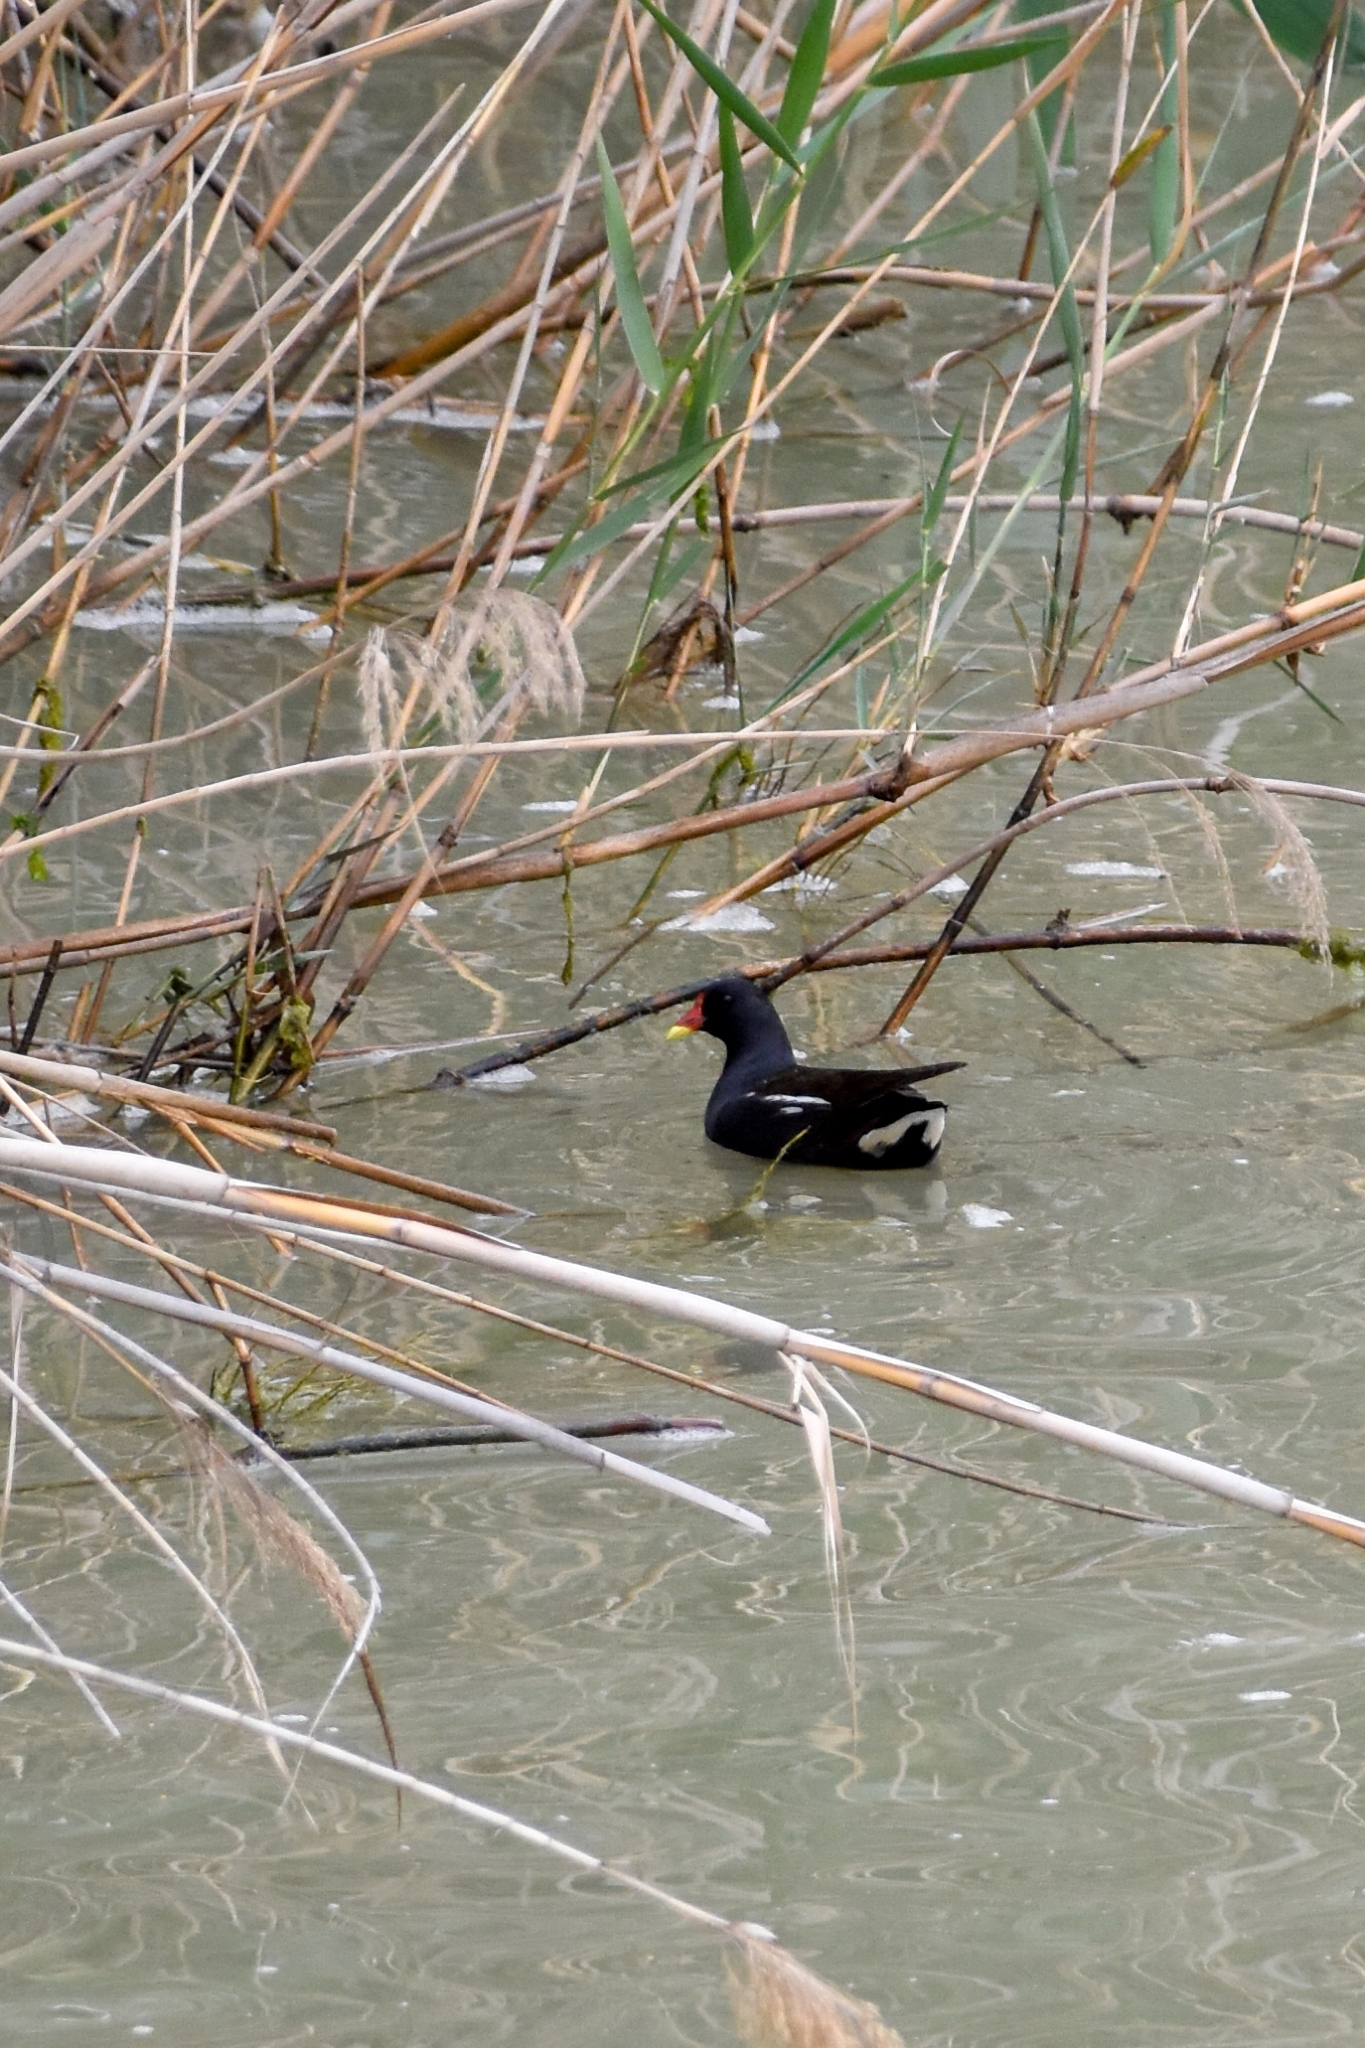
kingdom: Animalia
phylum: Chordata
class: Aves
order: Gruiformes
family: Rallidae
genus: Gallinula
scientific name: Gallinula chloropus
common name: Common moorhen
